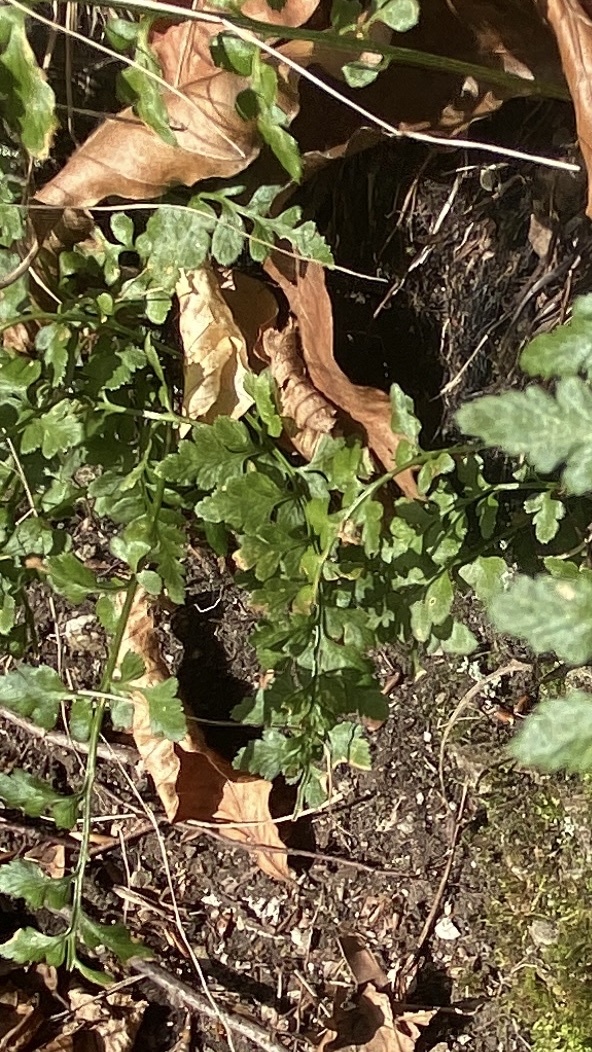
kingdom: Plantae
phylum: Tracheophyta
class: Polypodiopsida
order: Polypodiales
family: Aspleniaceae
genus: Asplenium
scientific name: Asplenium adiantum-nigrum
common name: Black spleenwort
